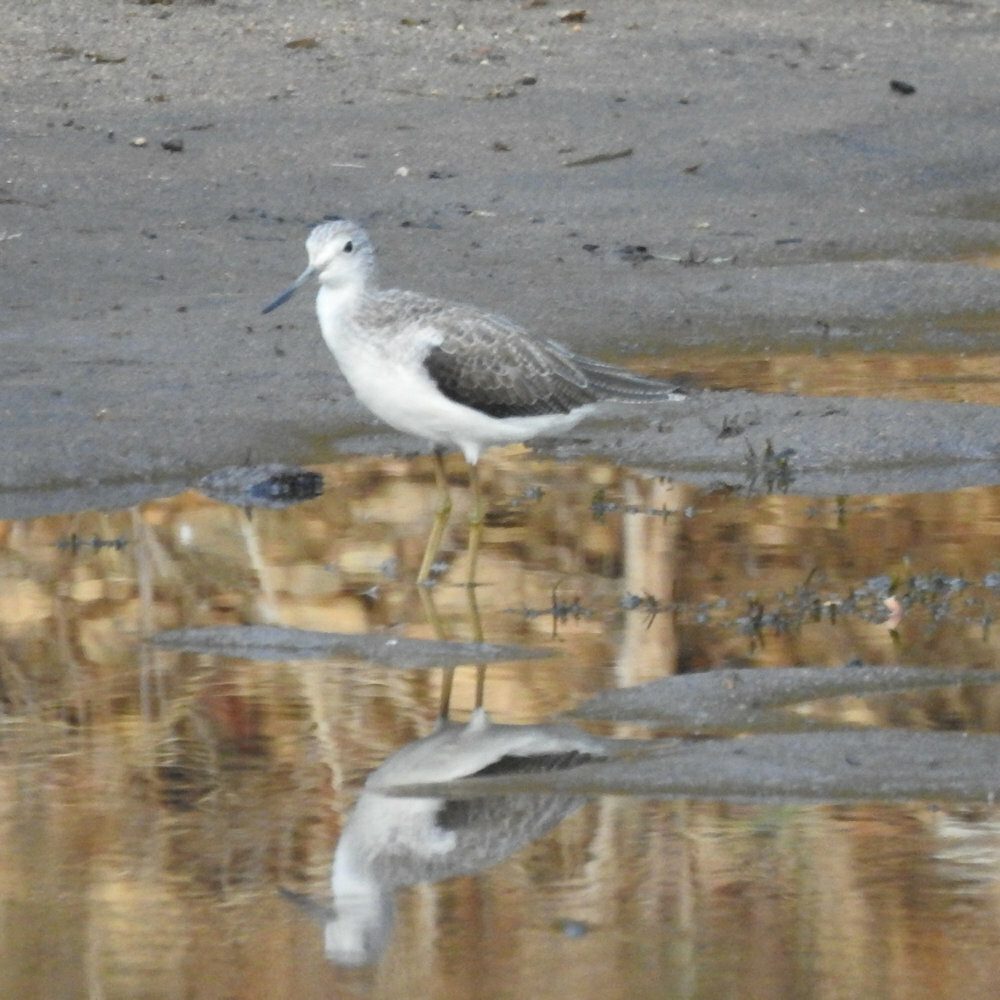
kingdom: Animalia
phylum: Chordata
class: Aves
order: Charadriiformes
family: Scolopacidae
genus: Tringa
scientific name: Tringa nebularia
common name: Common greenshank
